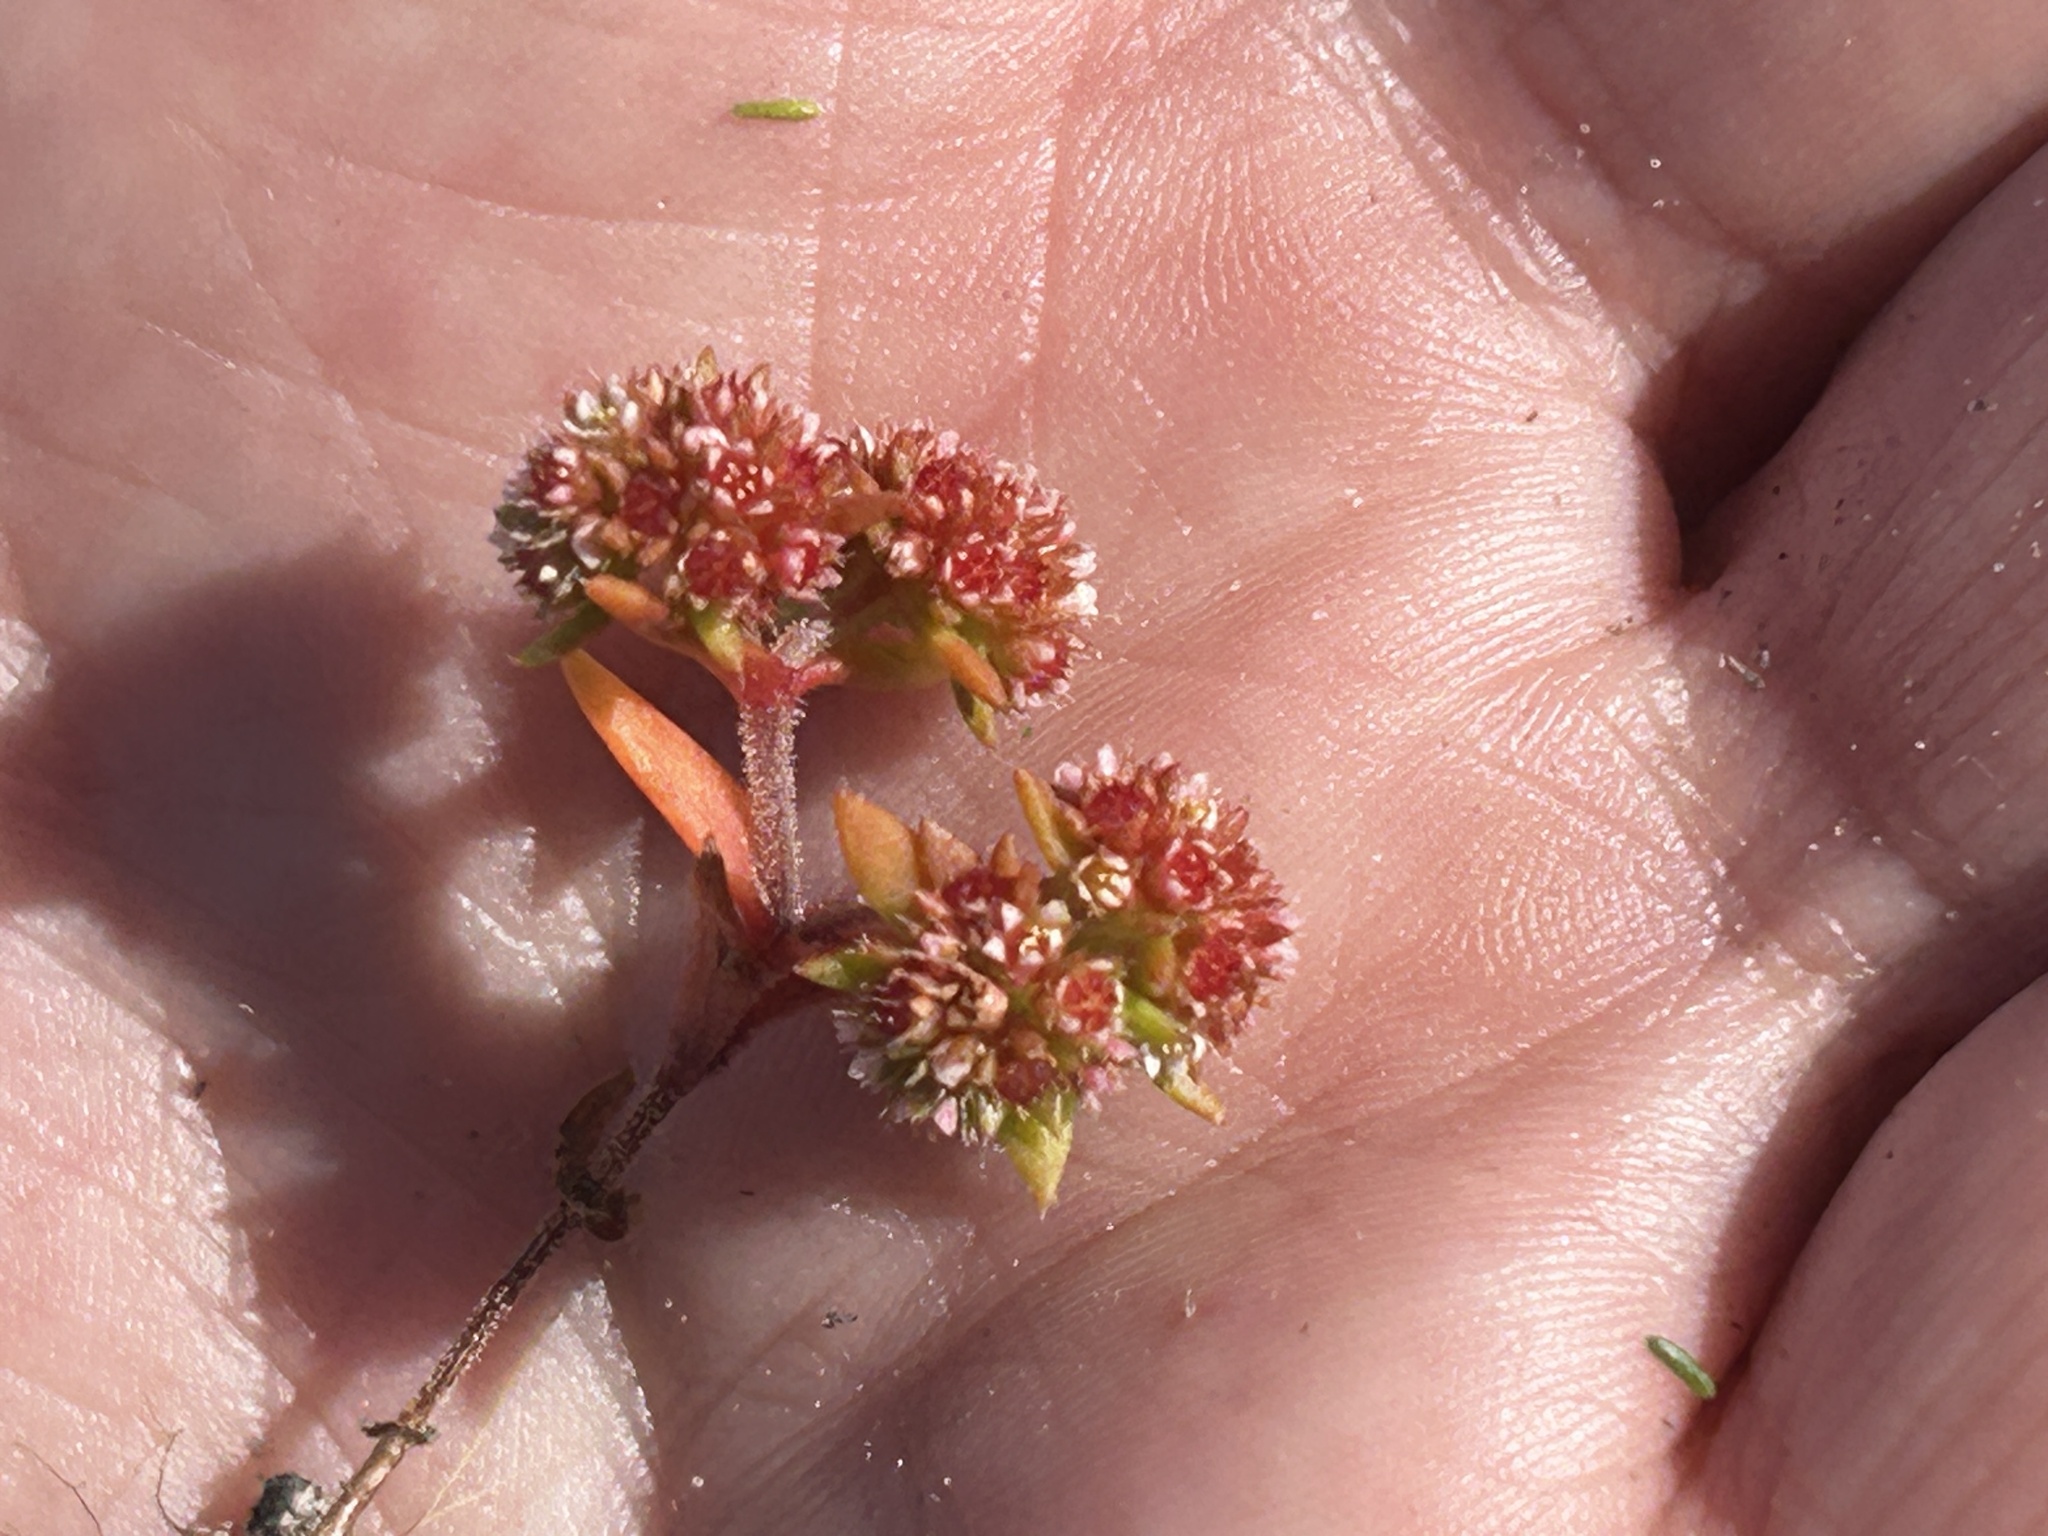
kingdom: Plantae
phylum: Tracheophyta
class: Magnoliopsida
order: Saxifragales
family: Crassulaceae
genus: Crassula
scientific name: Crassula glomerata
